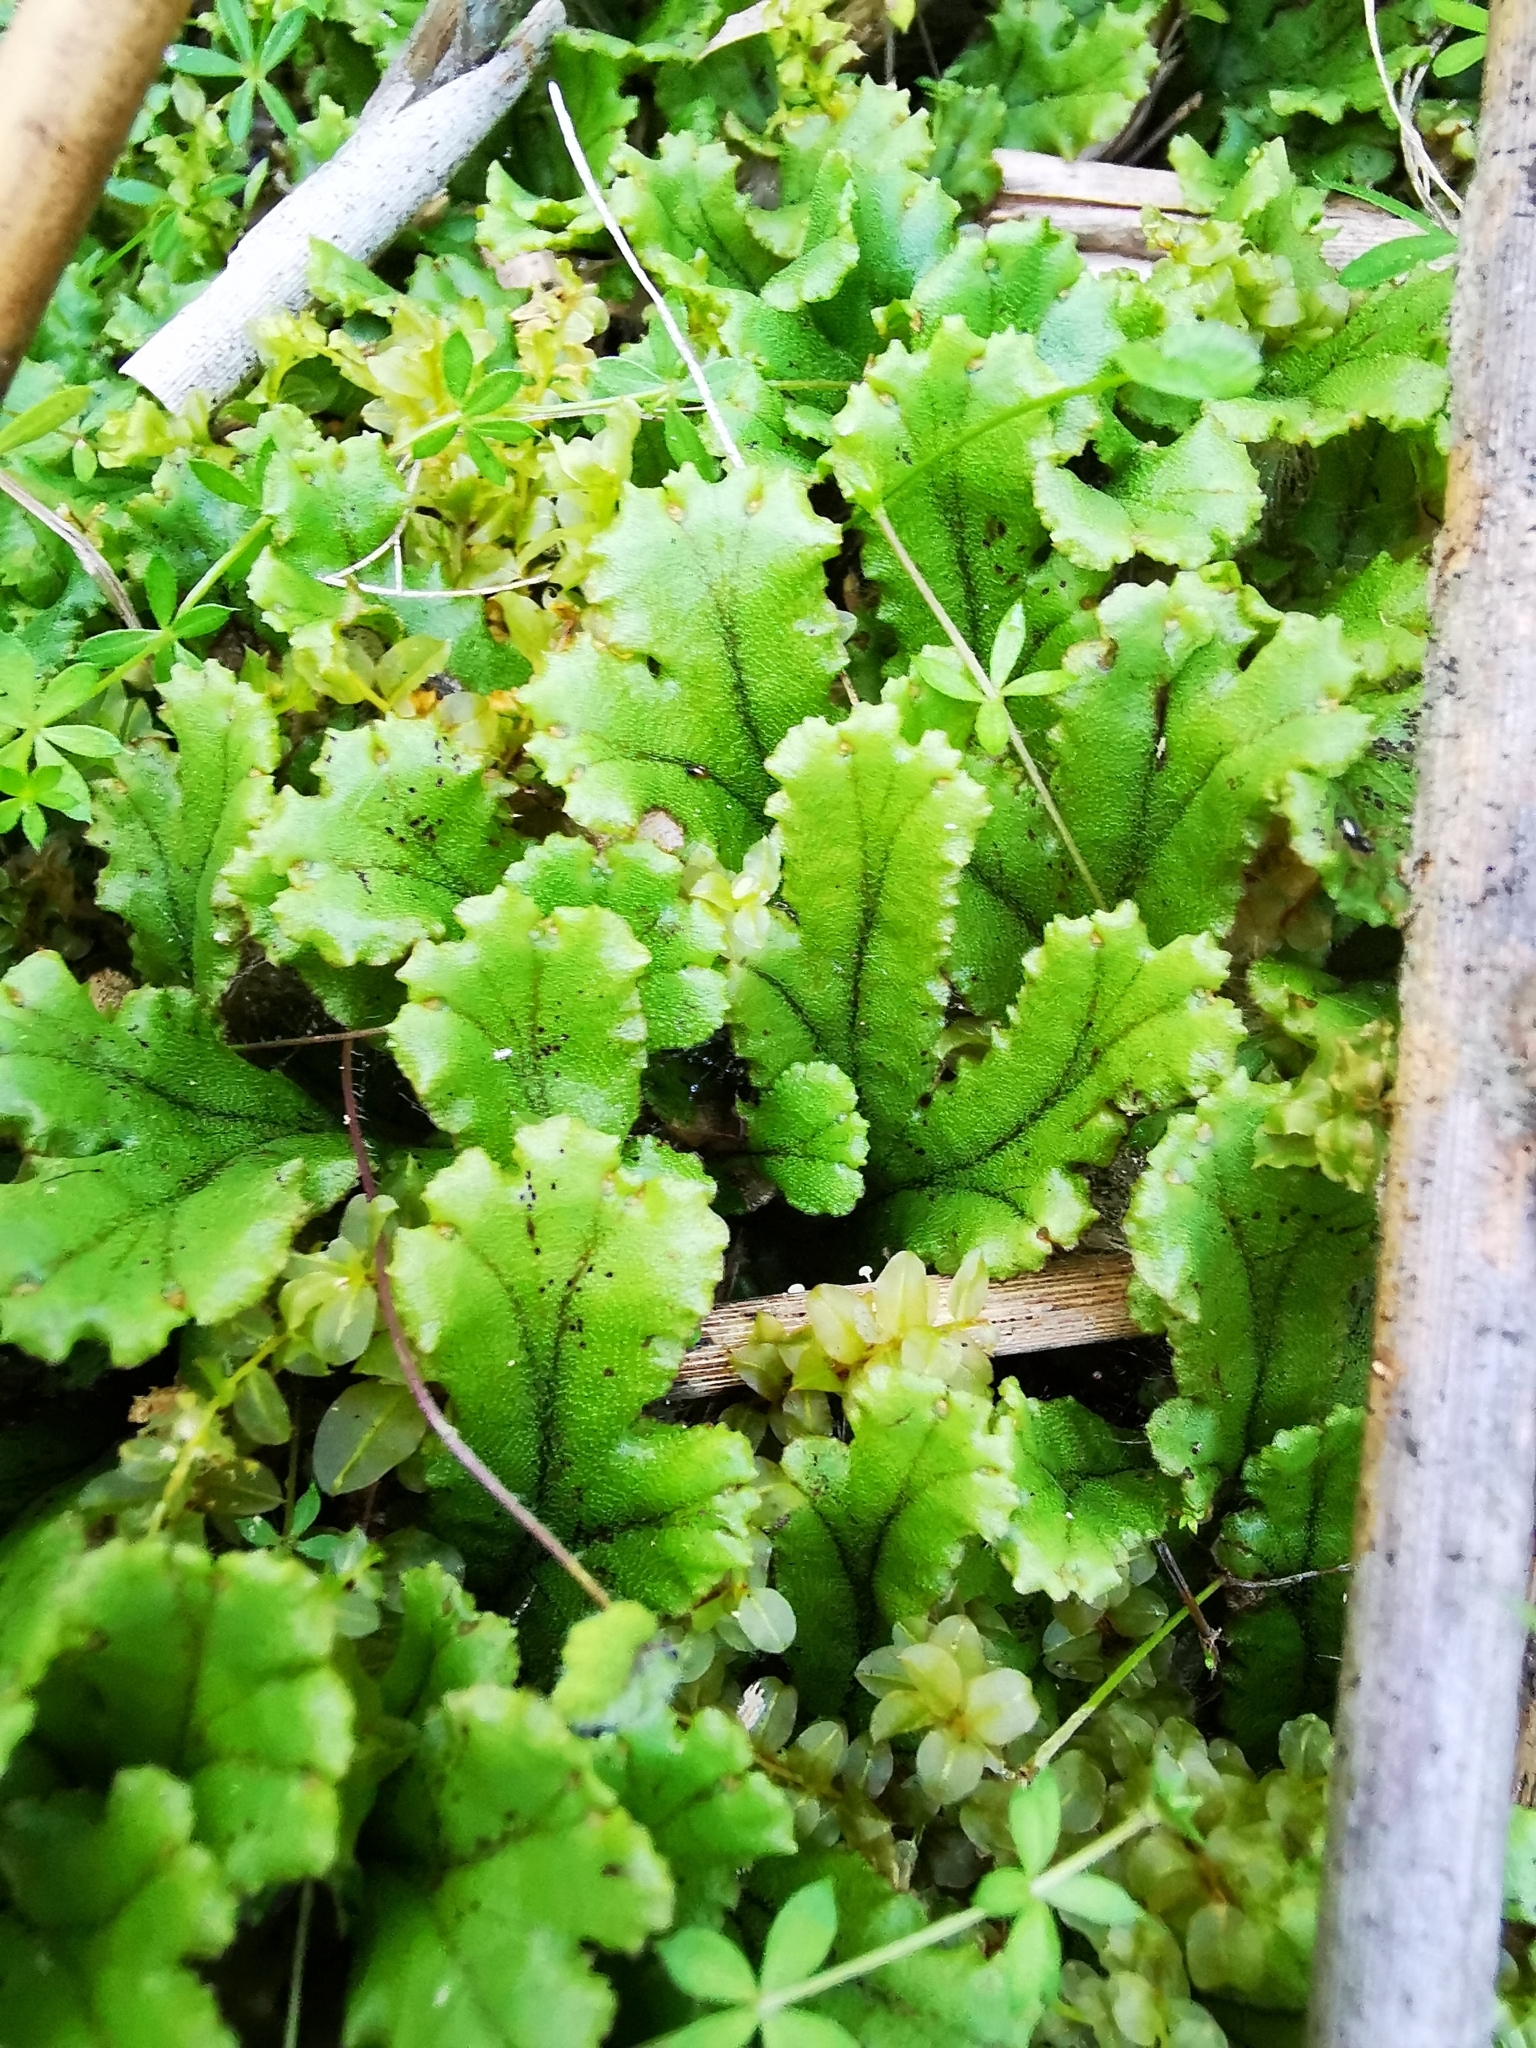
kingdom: Plantae
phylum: Marchantiophyta
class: Marchantiopsida
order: Marchantiales
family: Marchantiaceae
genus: Marchantia
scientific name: Marchantia polymorpha
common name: Common liverwort
